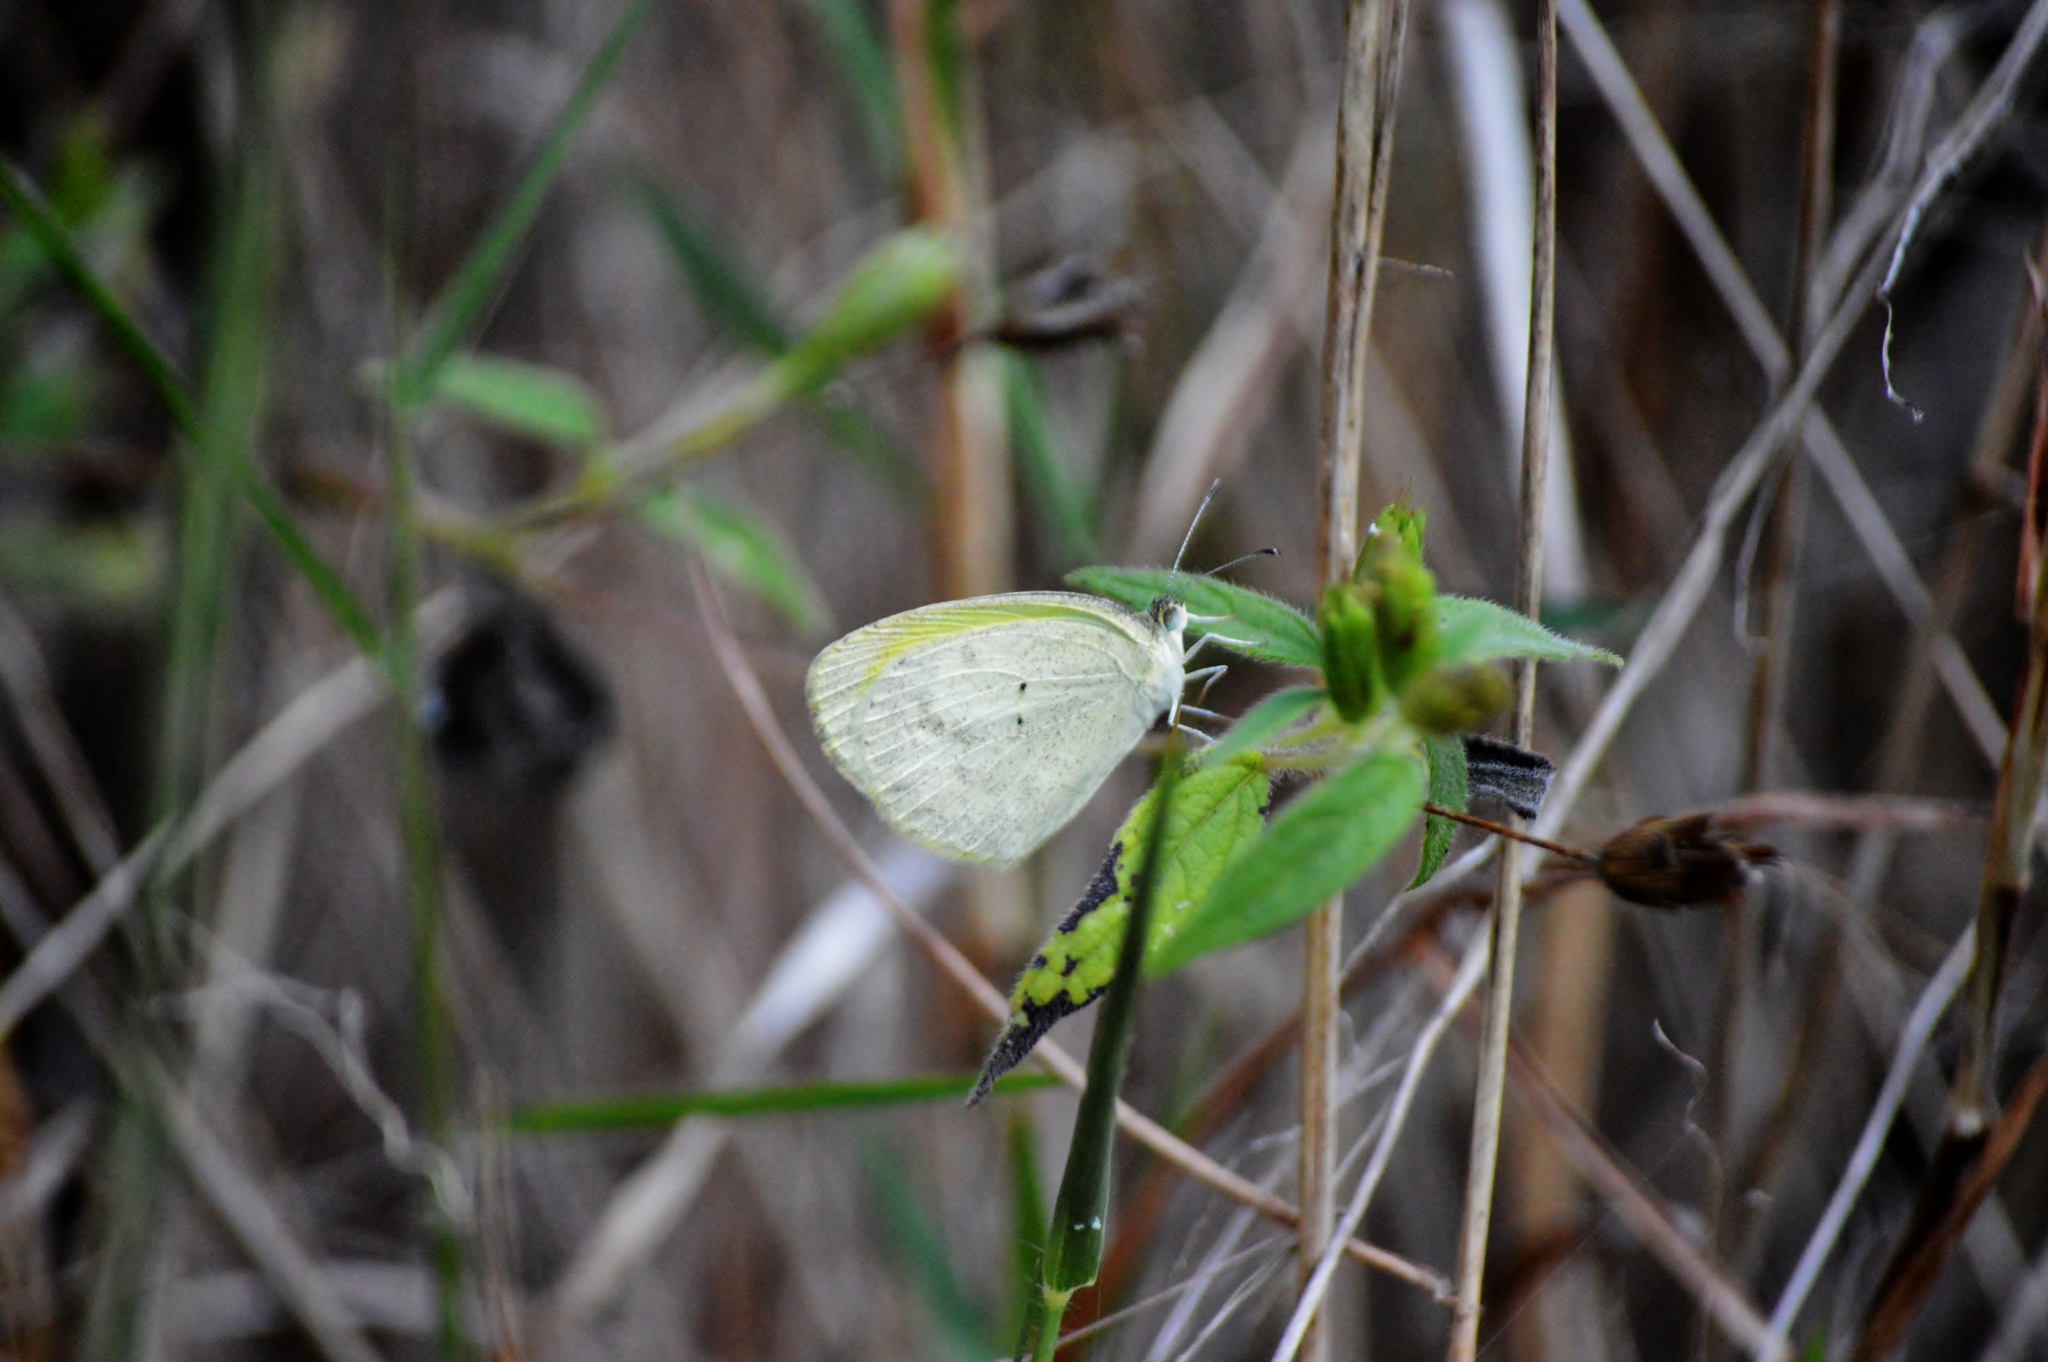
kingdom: Animalia
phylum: Arthropoda
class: Insecta
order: Lepidoptera
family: Pieridae
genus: Eurema
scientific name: Eurema elathea
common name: Banded yellow
